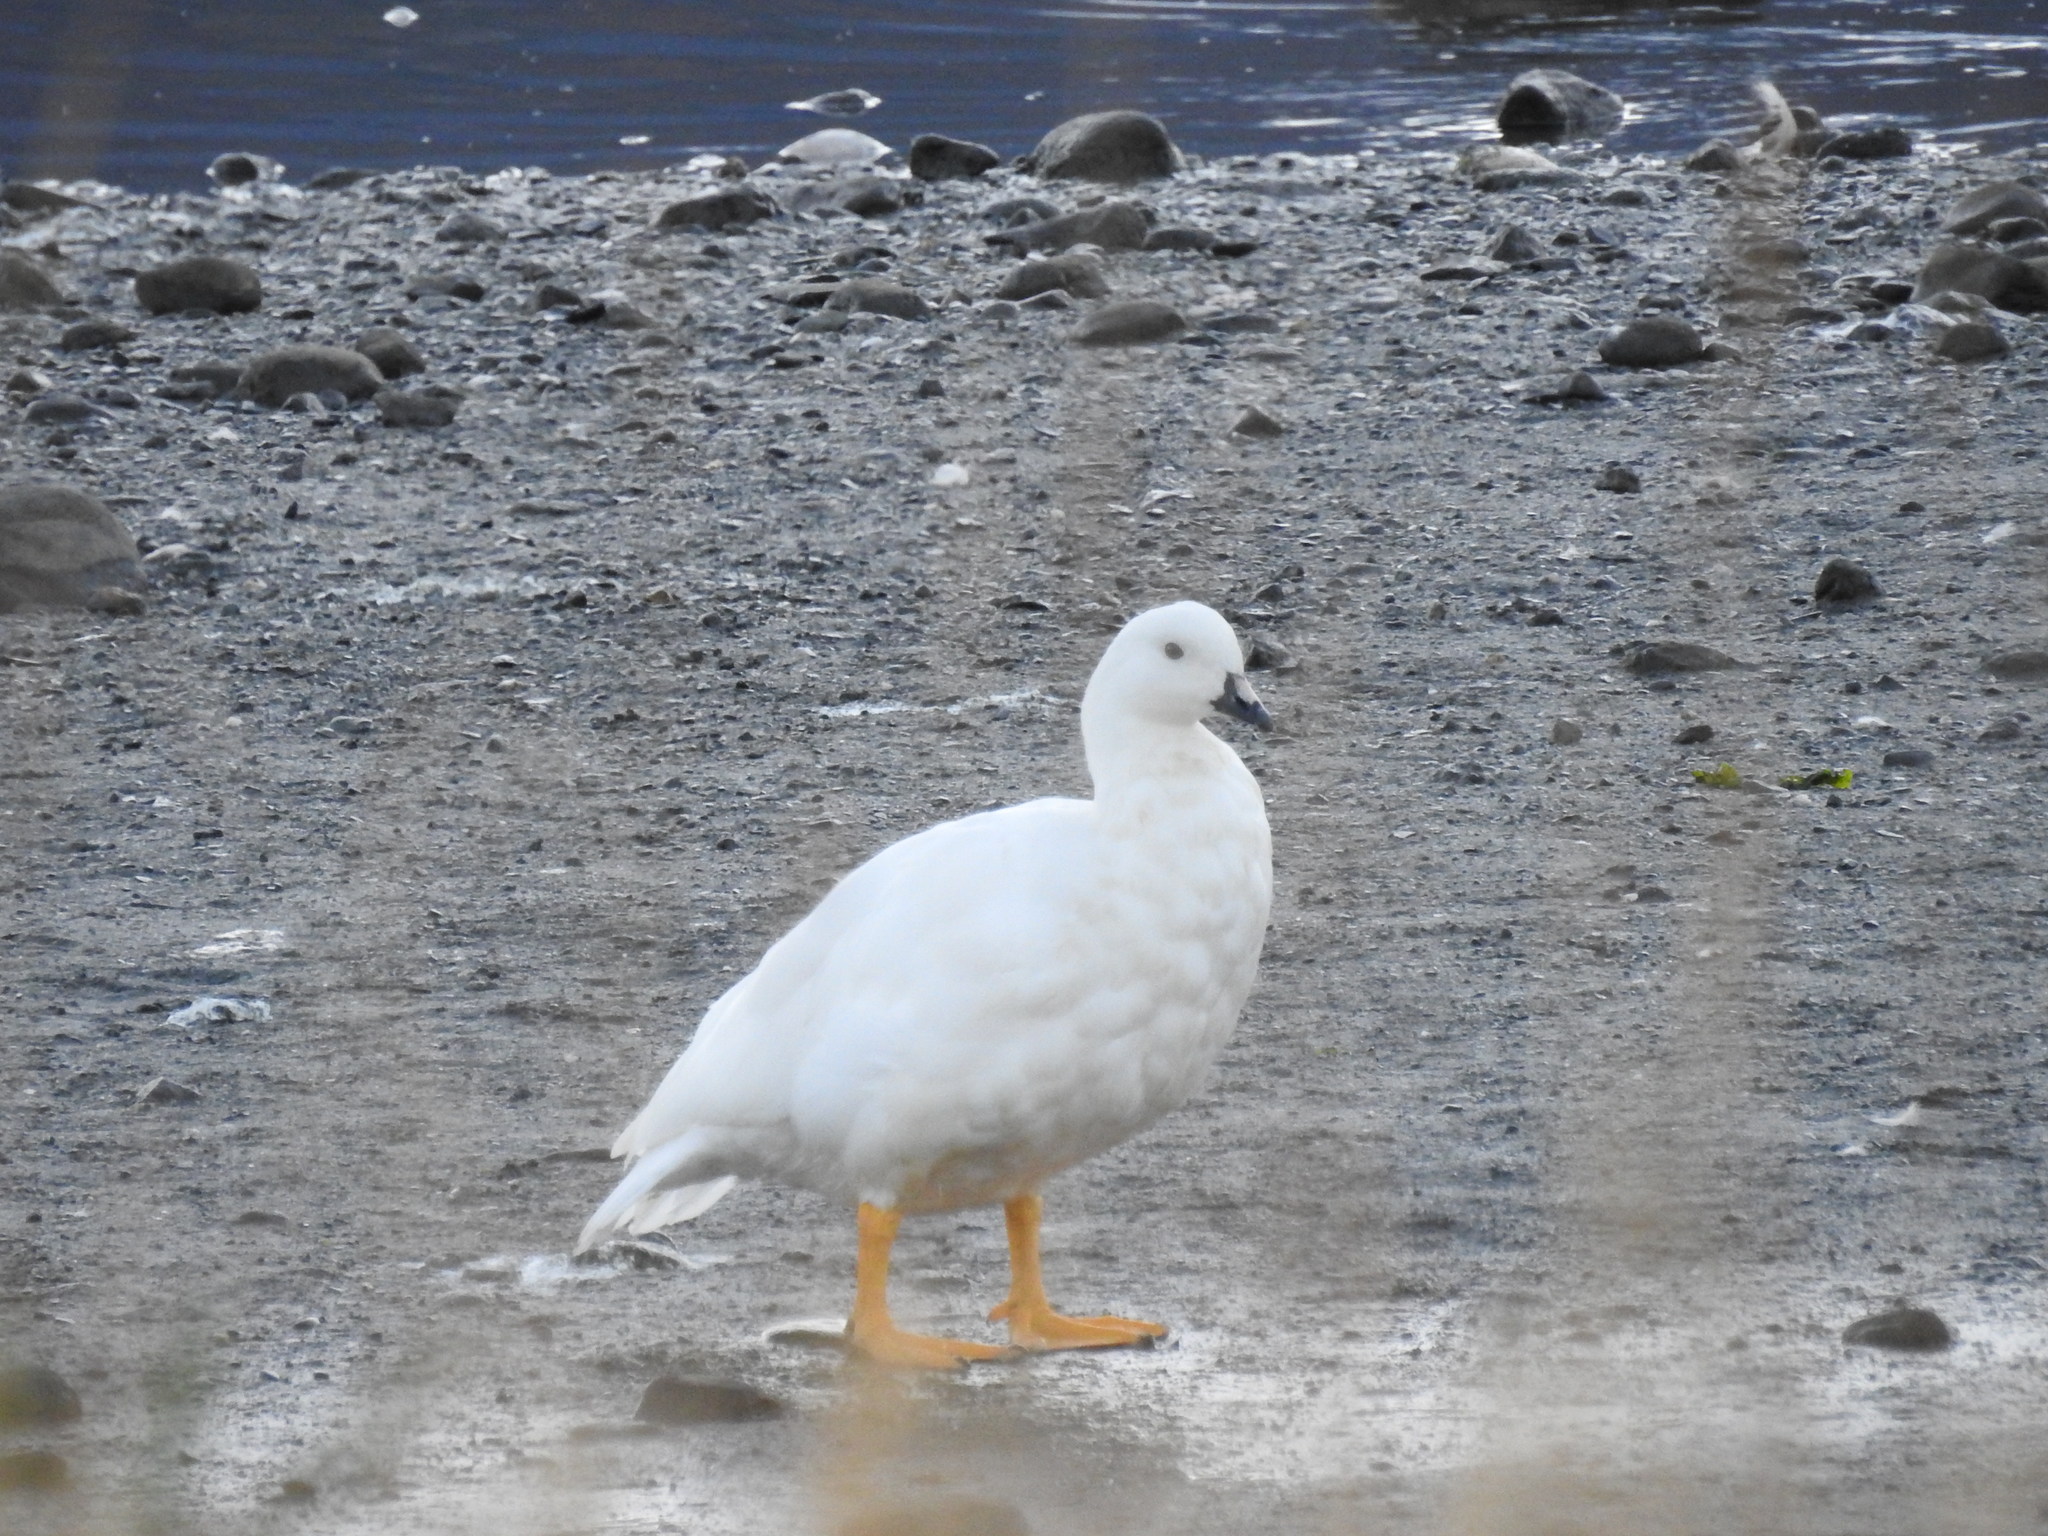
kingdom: Animalia
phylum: Chordata
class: Aves
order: Anseriformes
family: Anatidae
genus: Chloephaga
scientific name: Chloephaga hybrida
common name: Kelp goose
